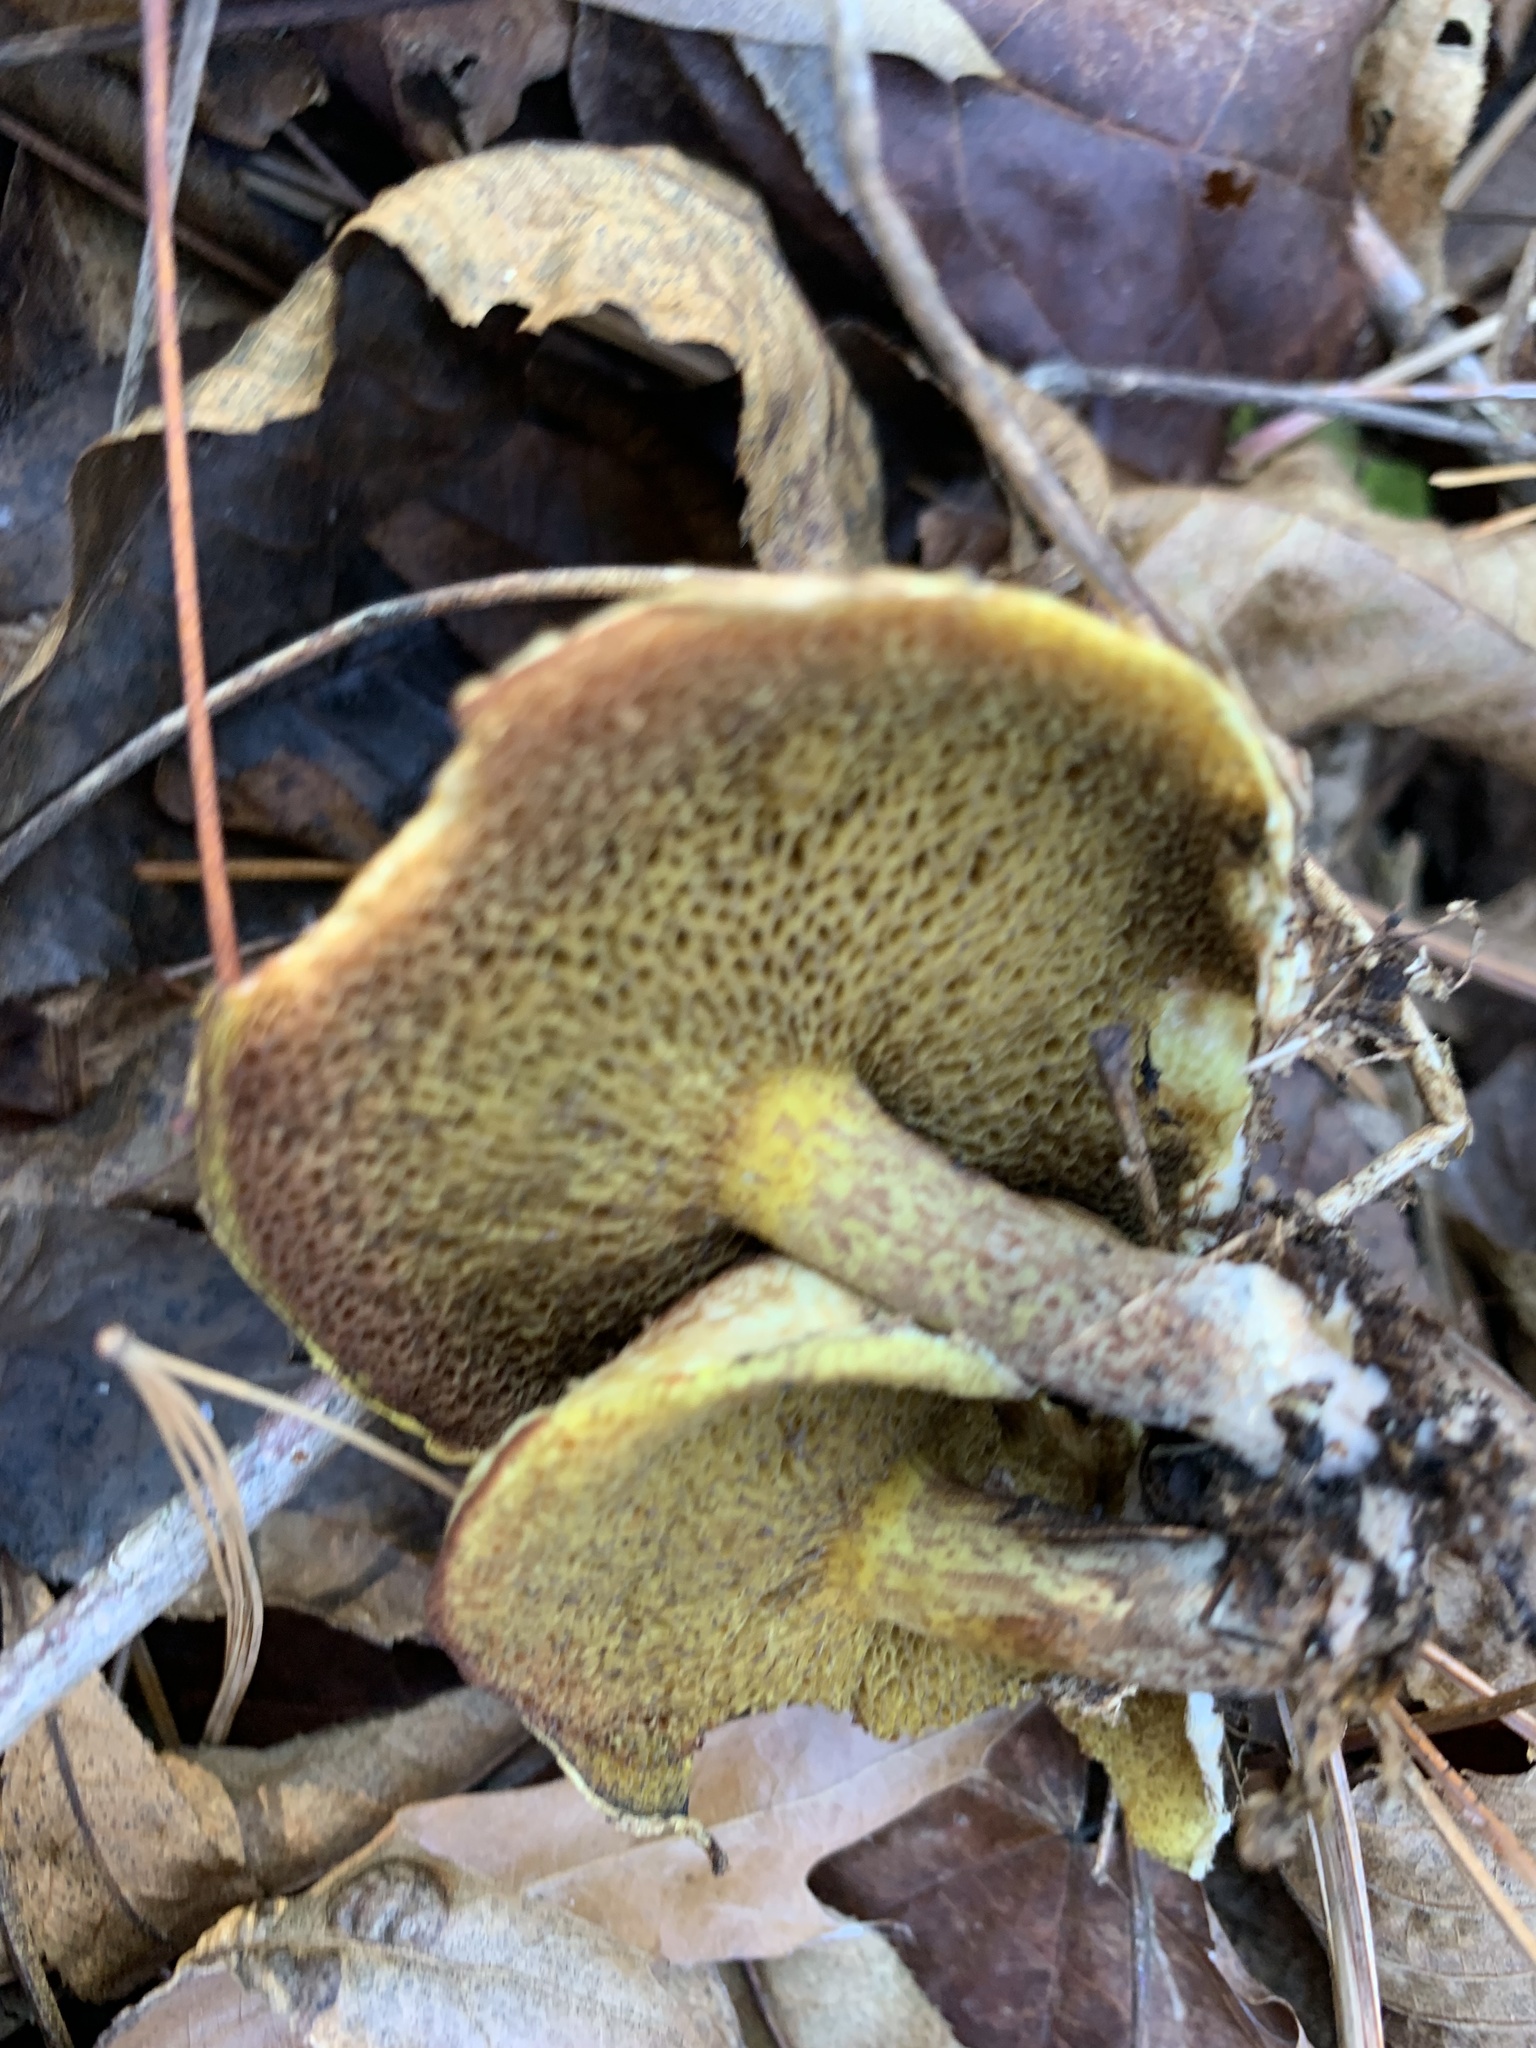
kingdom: Fungi
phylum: Basidiomycota
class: Agaricomycetes
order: Boletales
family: Suillaceae
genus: Suillus
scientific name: Suillus americanus
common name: Chicken fat mushroom
